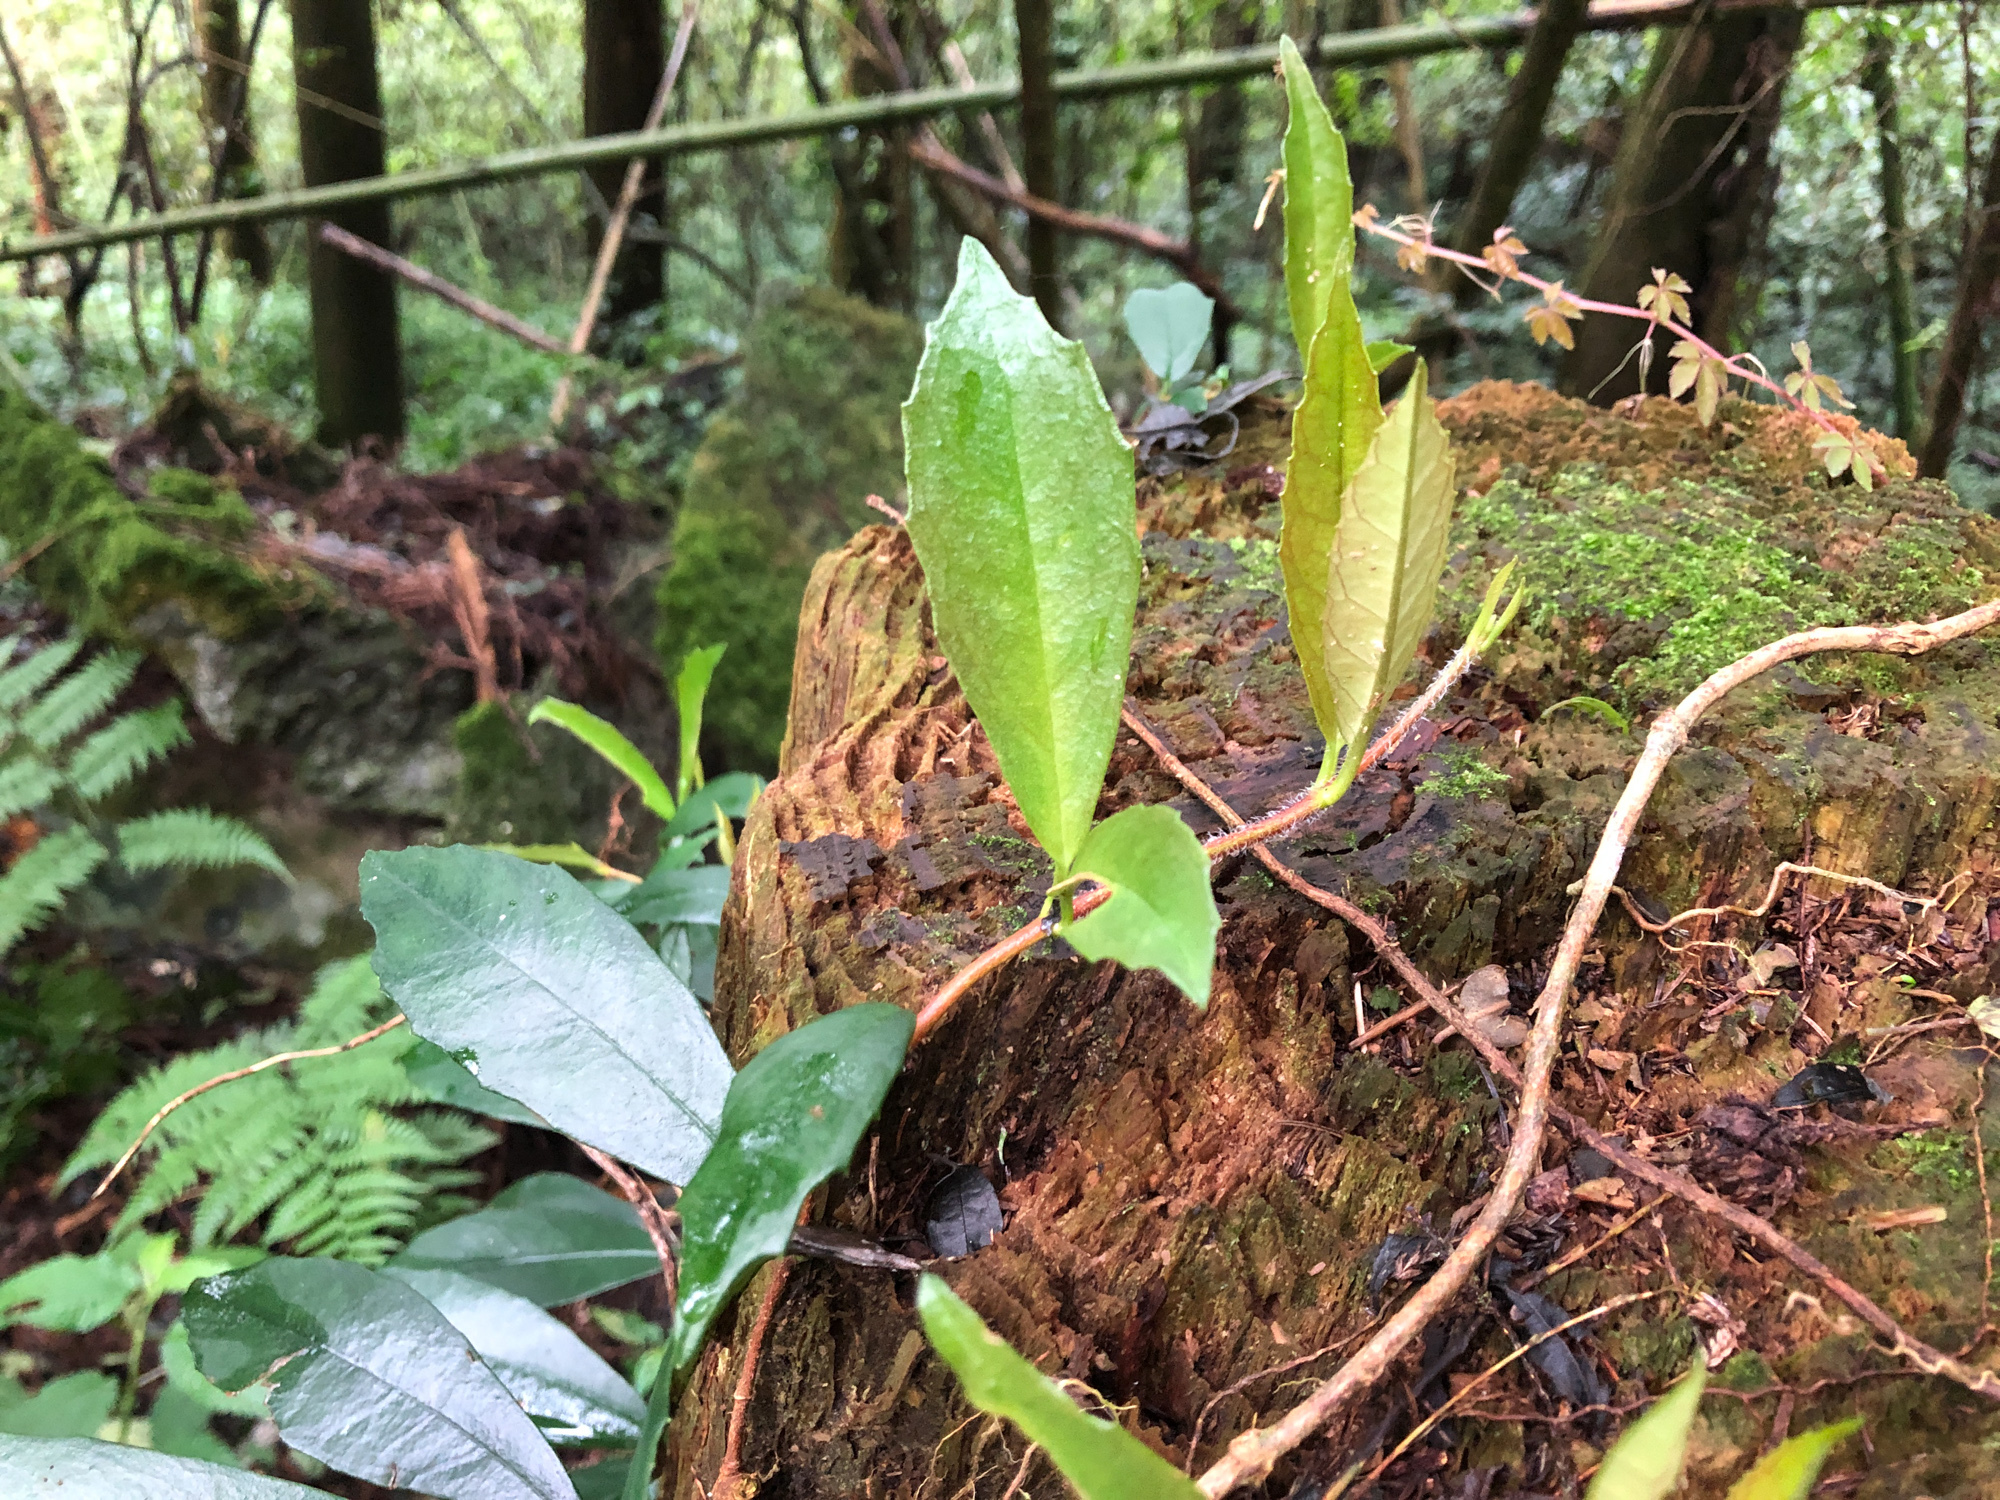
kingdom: Plantae
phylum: Tracheophyta
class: Magnoliopsida
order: Cornales
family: Hydrangeaceae
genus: Hydrangea
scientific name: Hydrangea integrifolia
